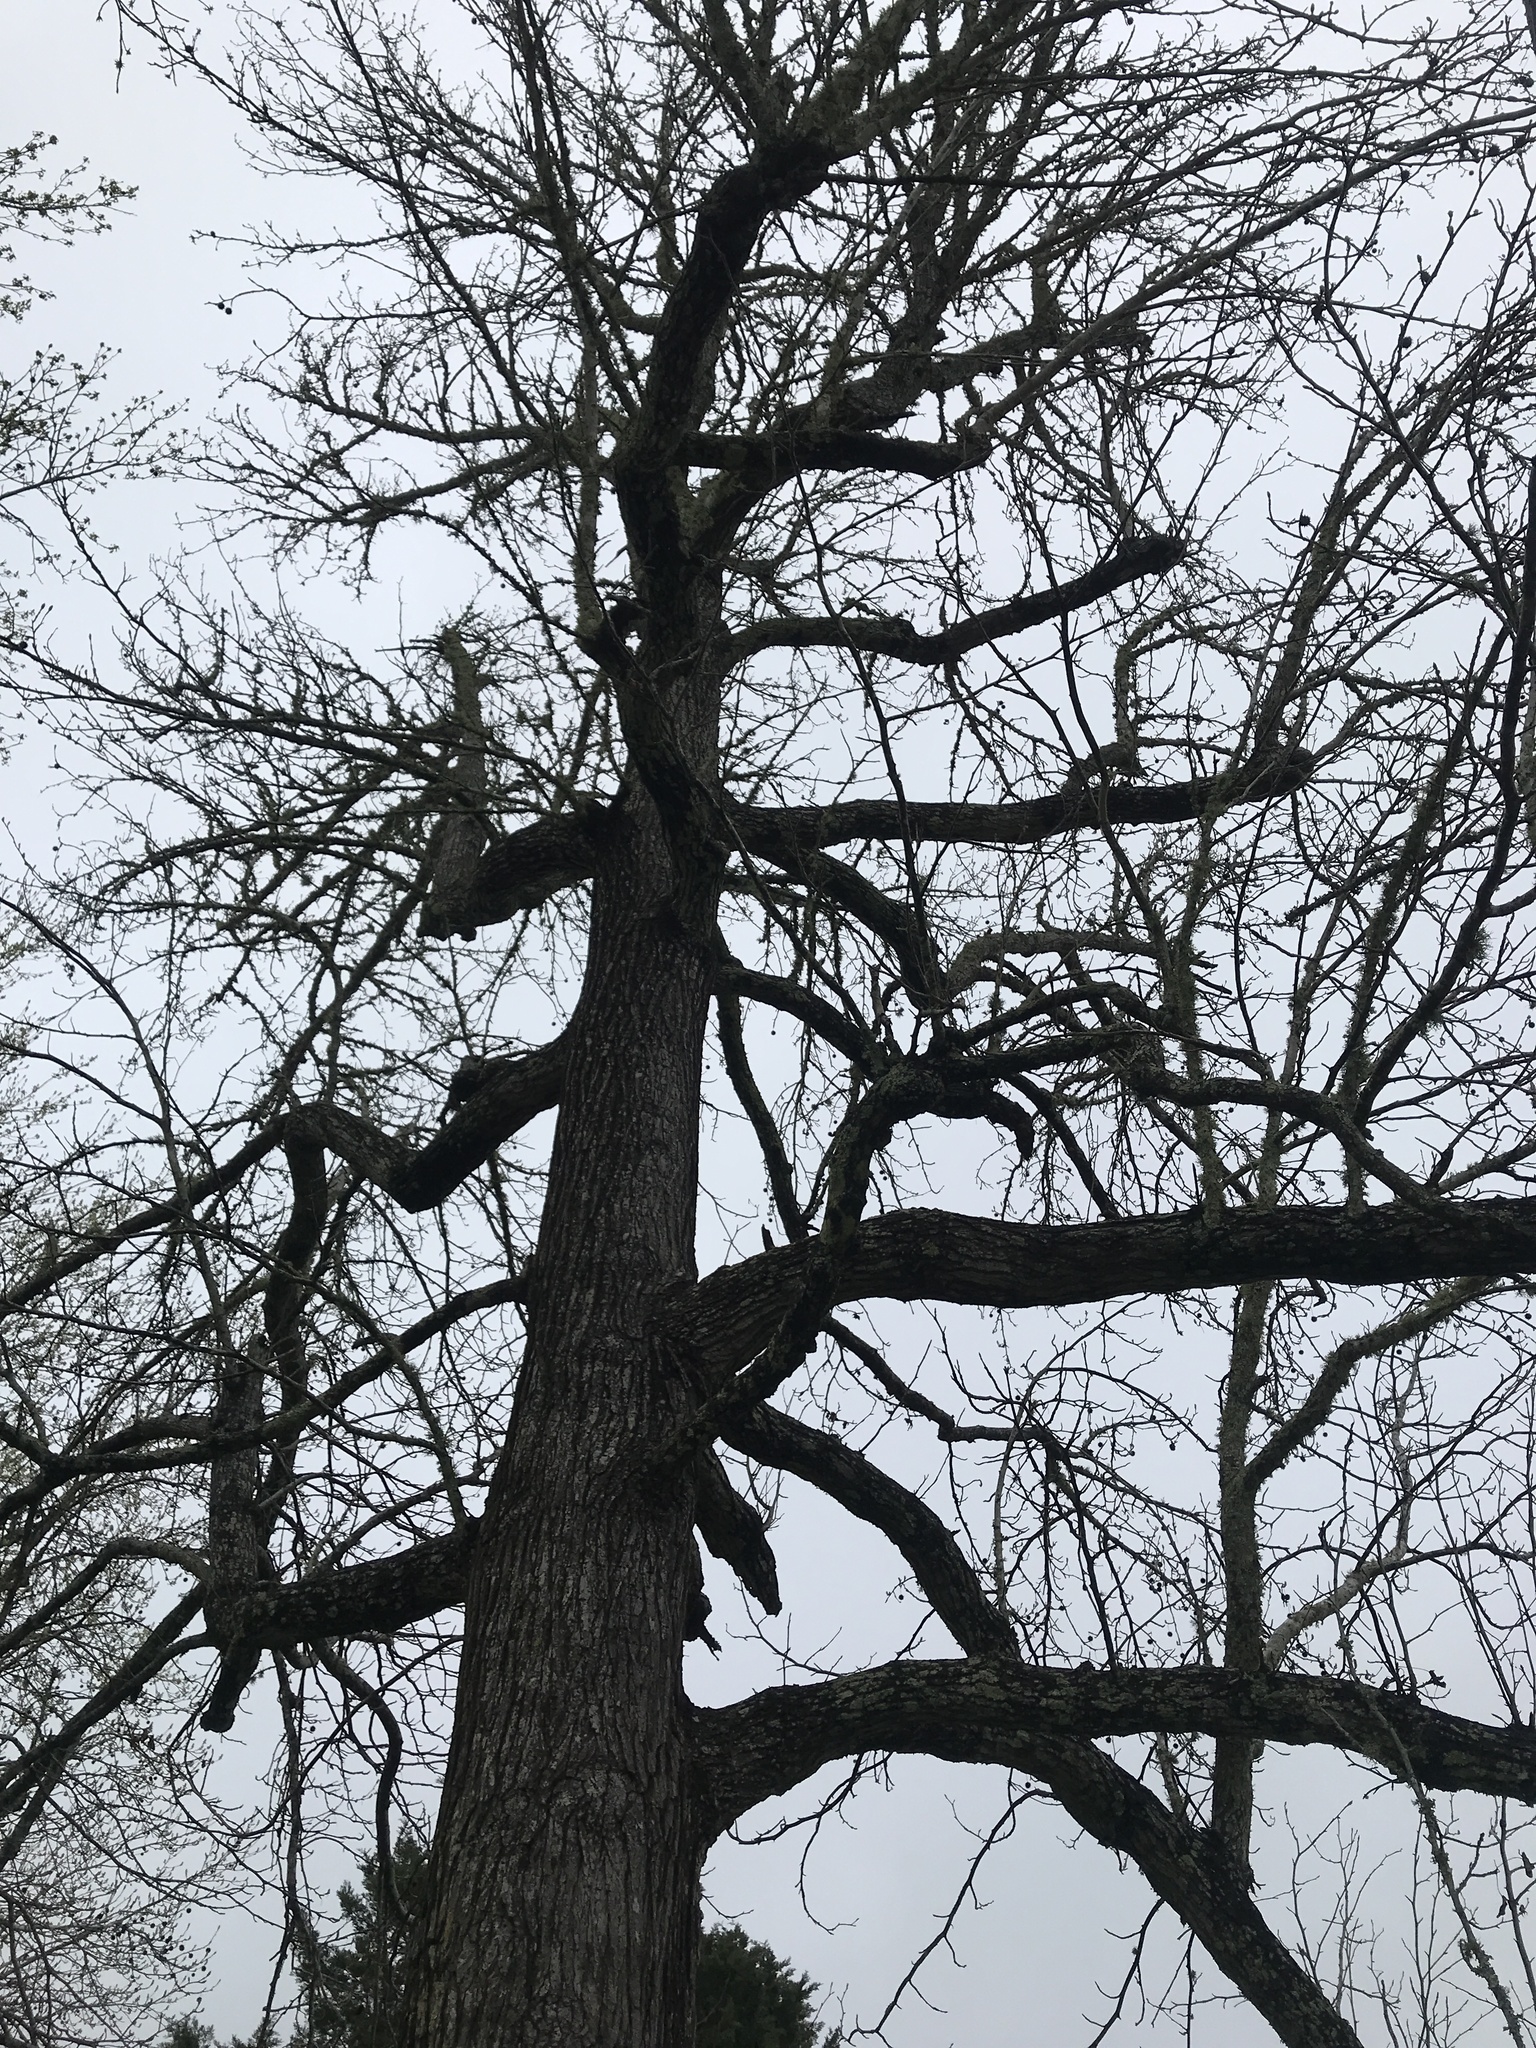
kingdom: Plantae
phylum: Tracheophyta
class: Magnoliopsida
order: Saxifragales
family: Altingiaceae
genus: Liquidambar
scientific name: Liquidambar styraciflua
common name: Sweet gum
